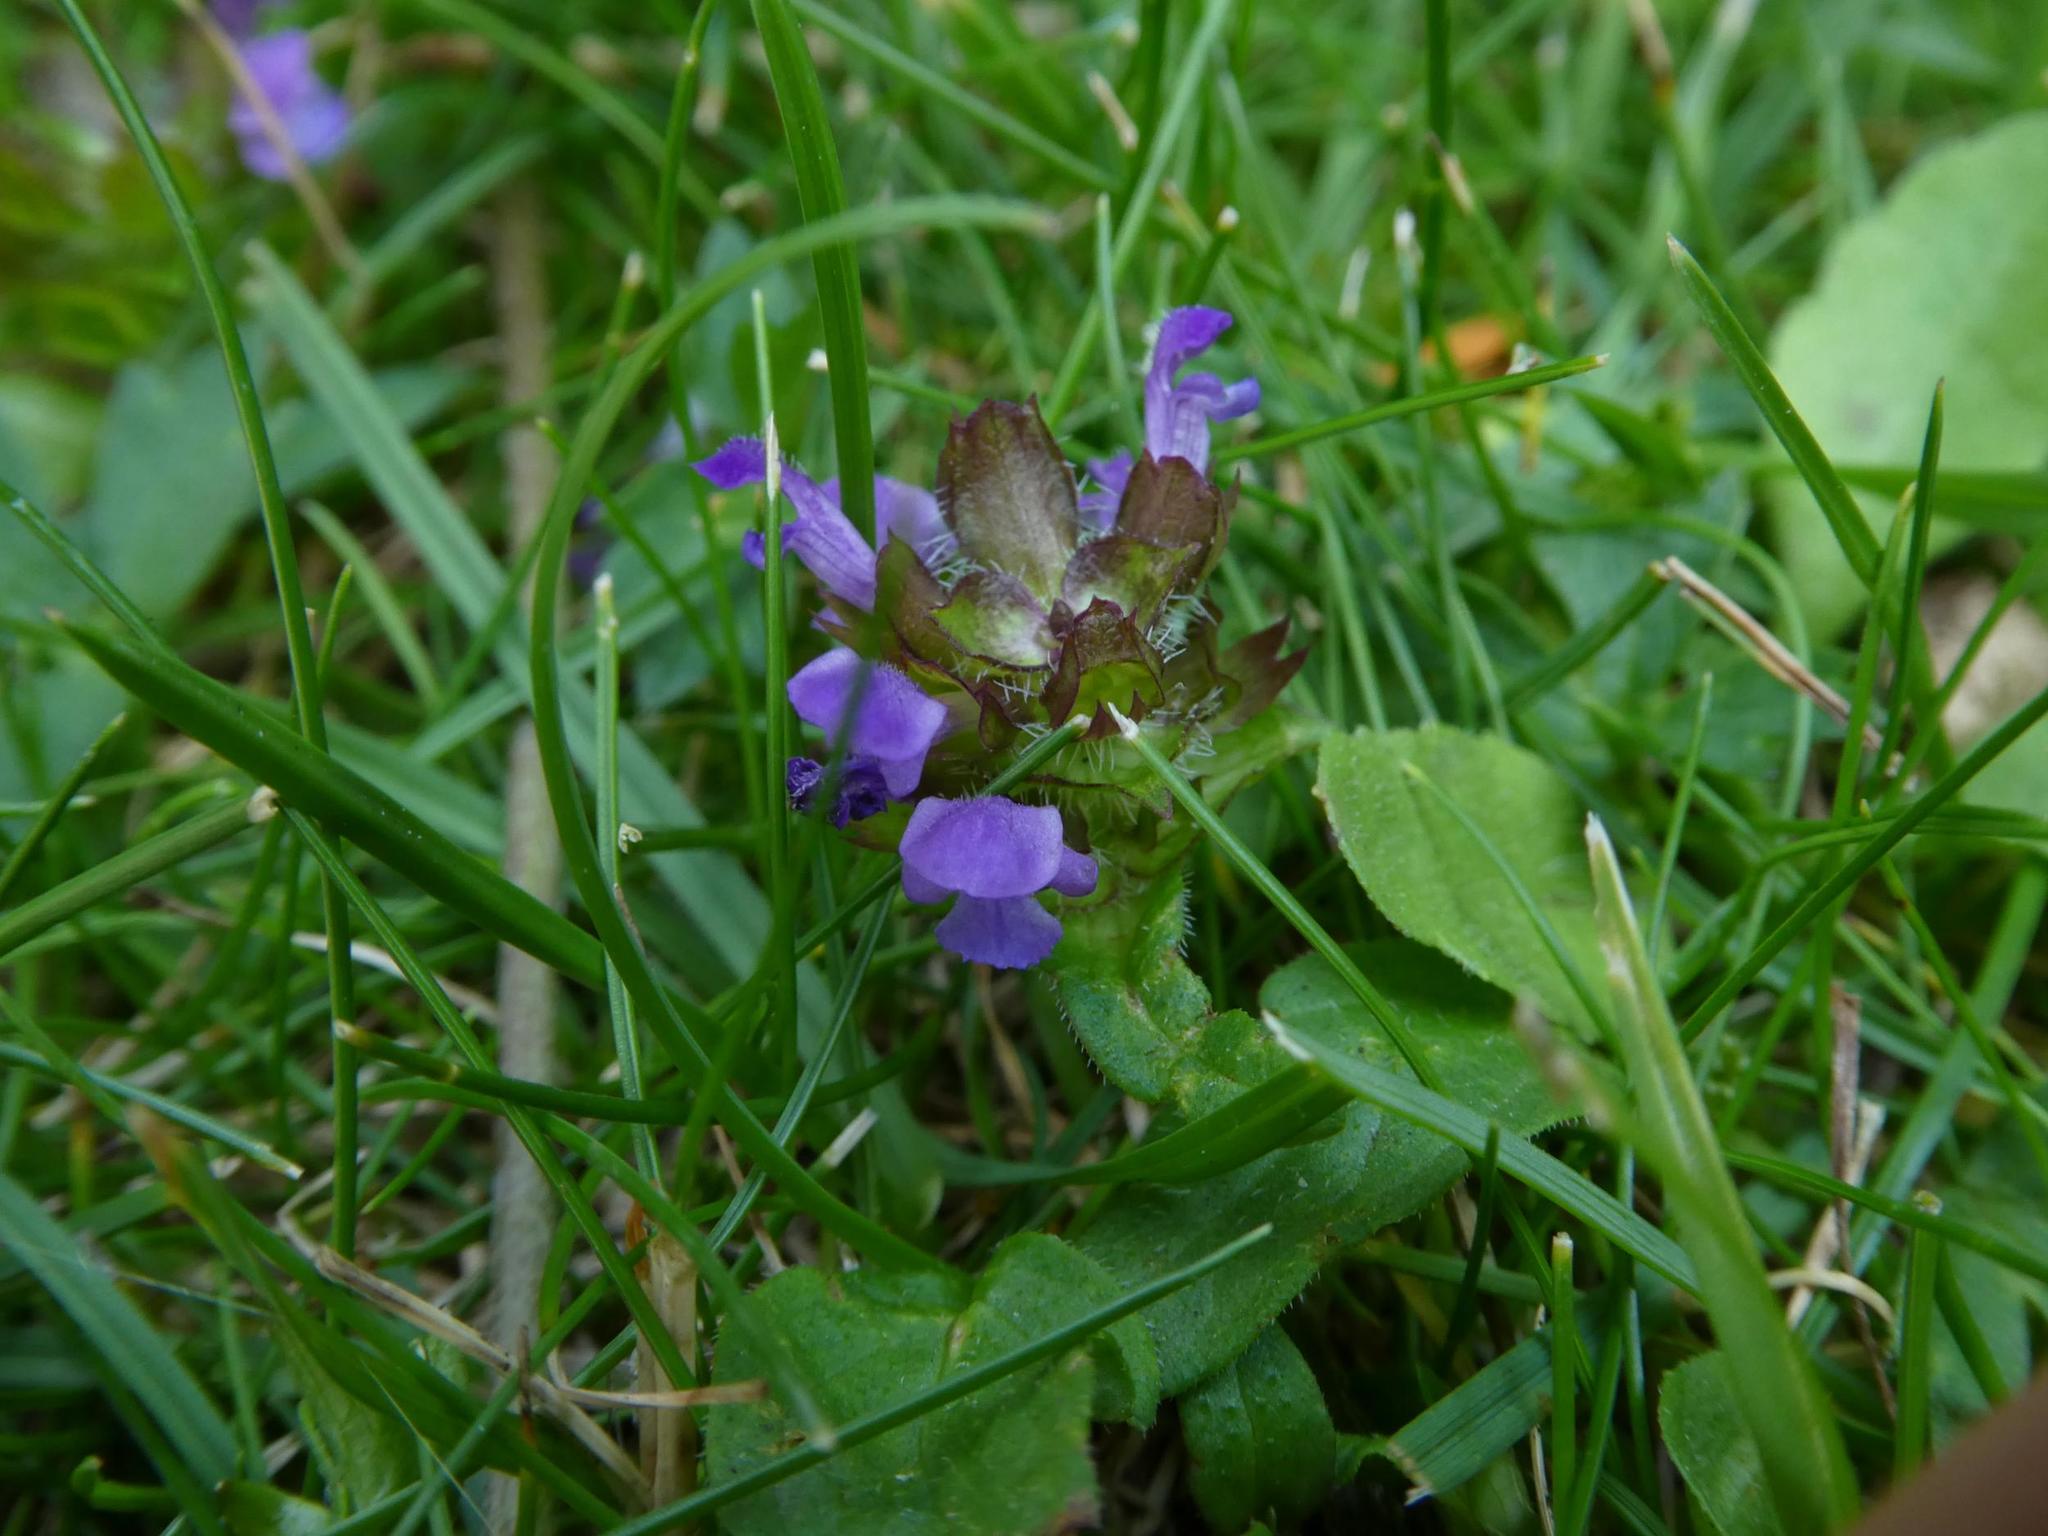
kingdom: Plantae
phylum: Tracheophyta
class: Magnoliopsida
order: Lamiales
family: Lamiaceae
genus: Prunella
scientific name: Prunella vulgaris
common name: Heal-all
